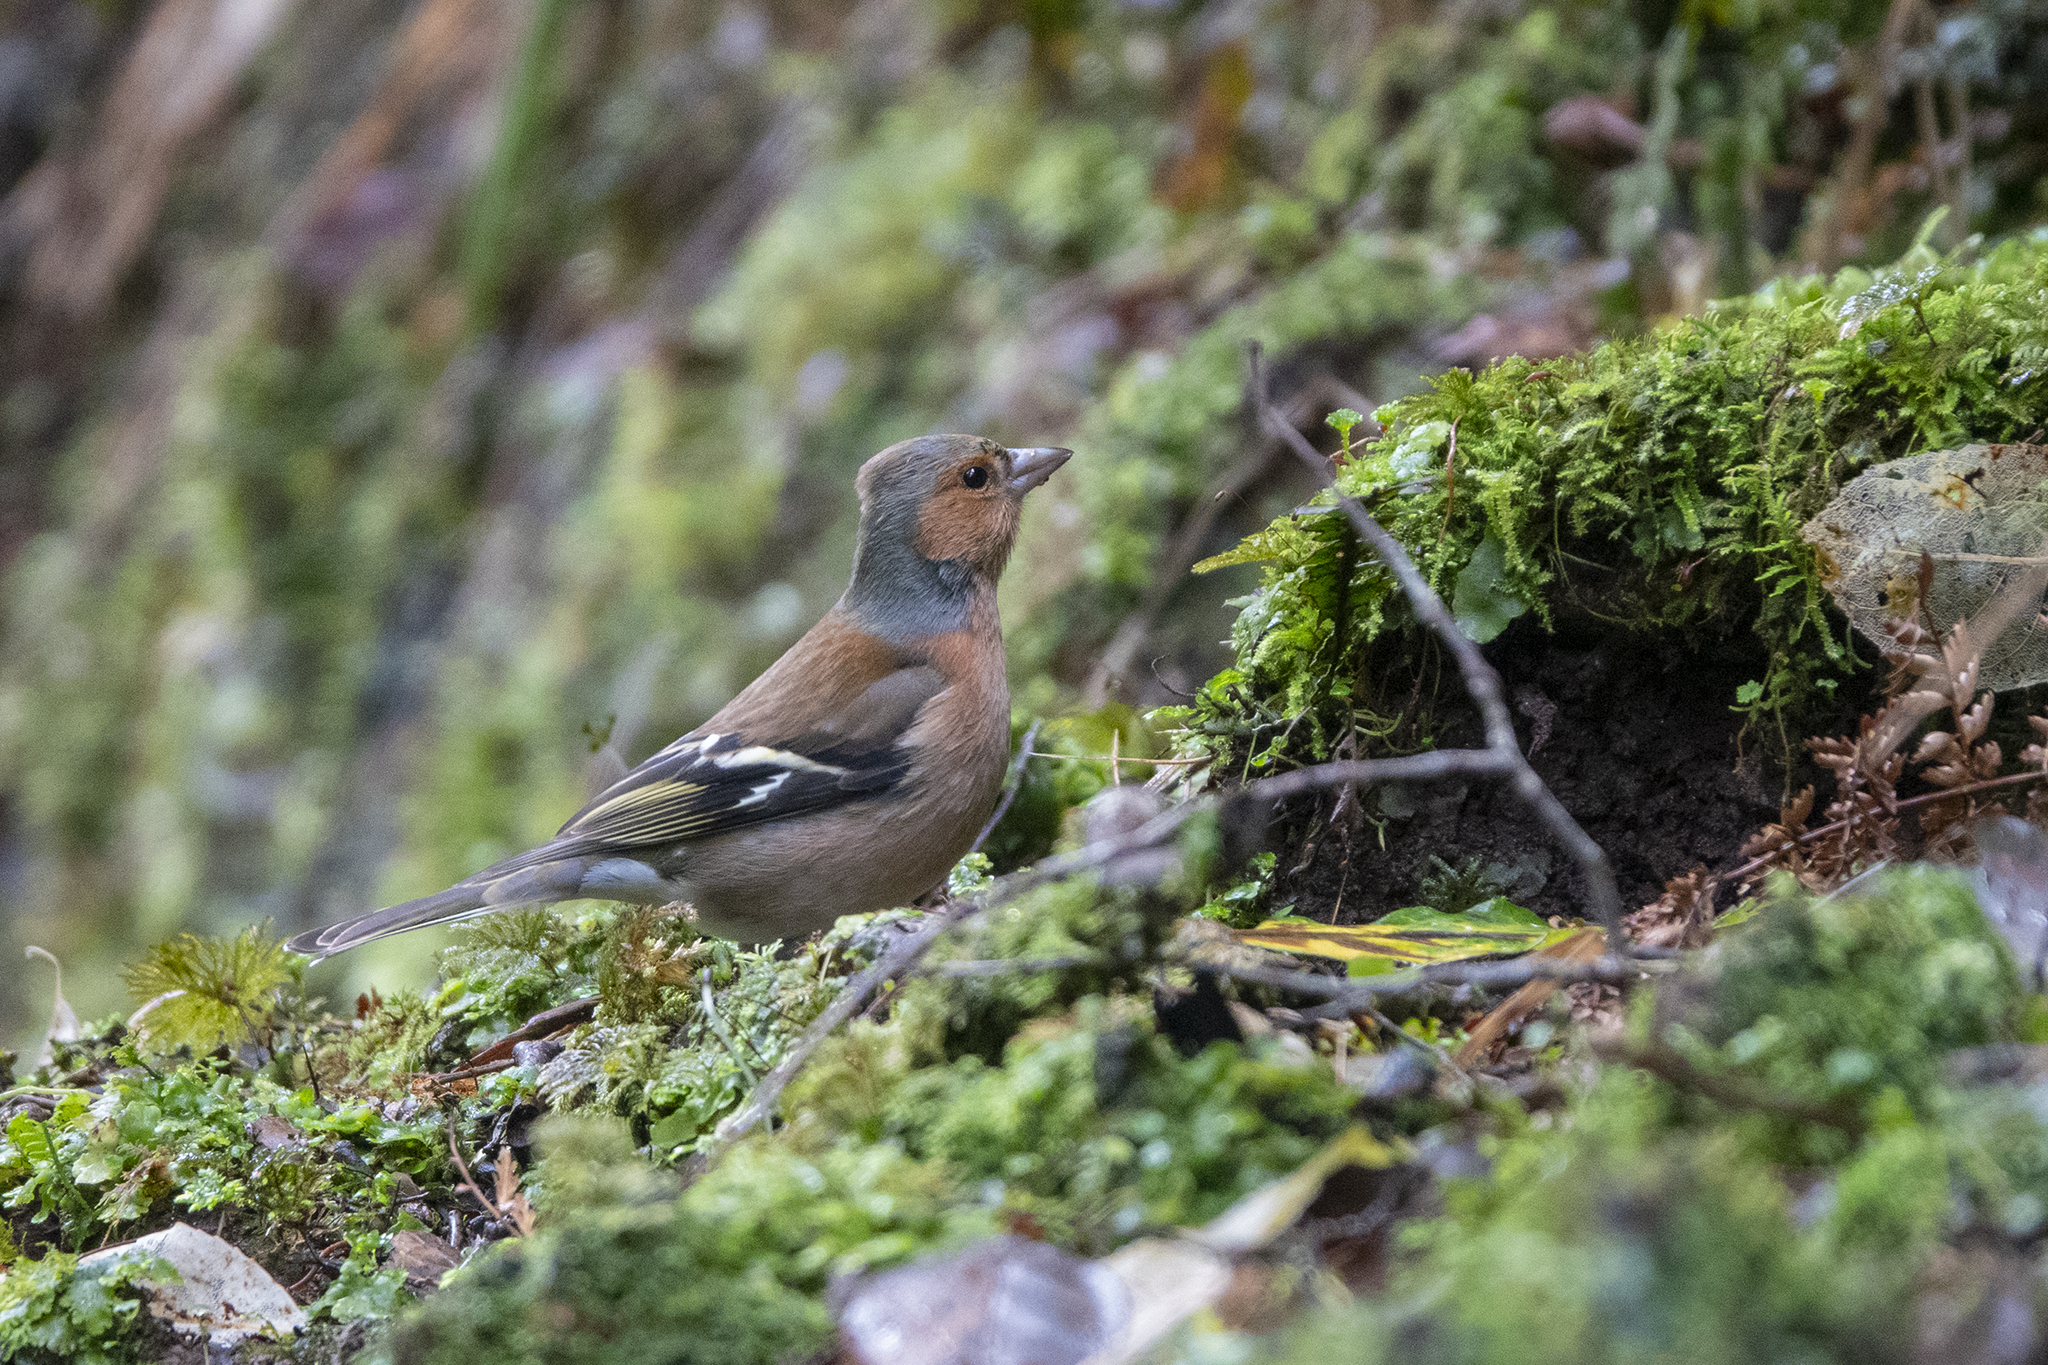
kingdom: Animalia
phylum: Chordata
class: Aves
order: Passeriformes
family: Fringillidae
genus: Fringilla
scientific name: Fringilla coelebs
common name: Common chaffinch
